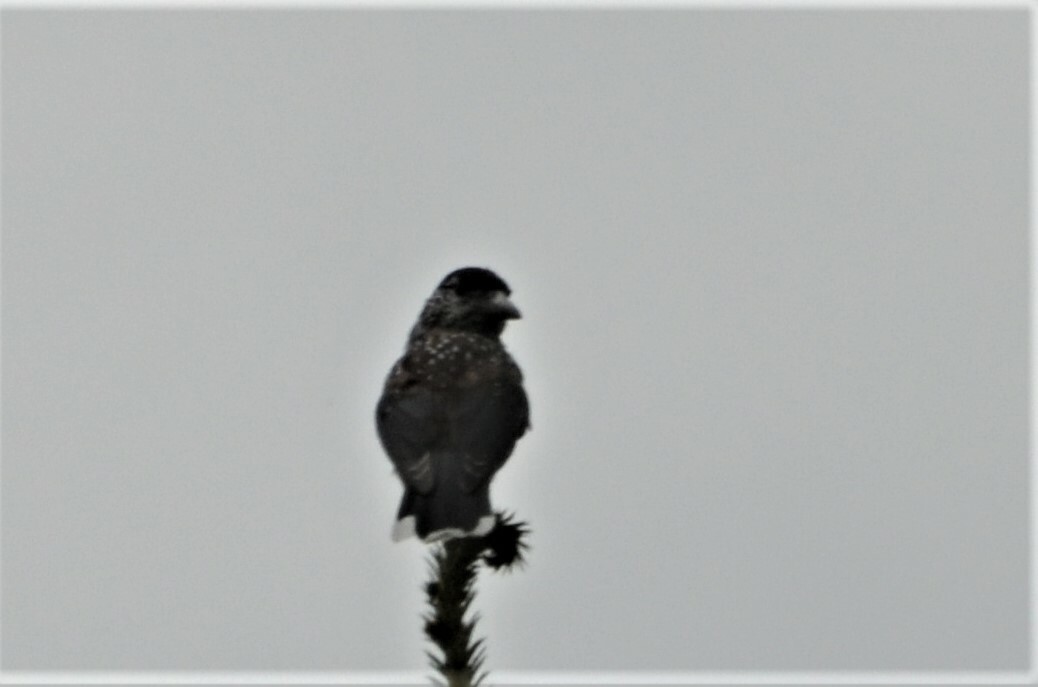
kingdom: Animalia
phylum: Chordata
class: Aves
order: Passeriformes
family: Corvidae
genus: Nucifraga
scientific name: Nucifraga caryocatactes
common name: Spotted nutcracker
